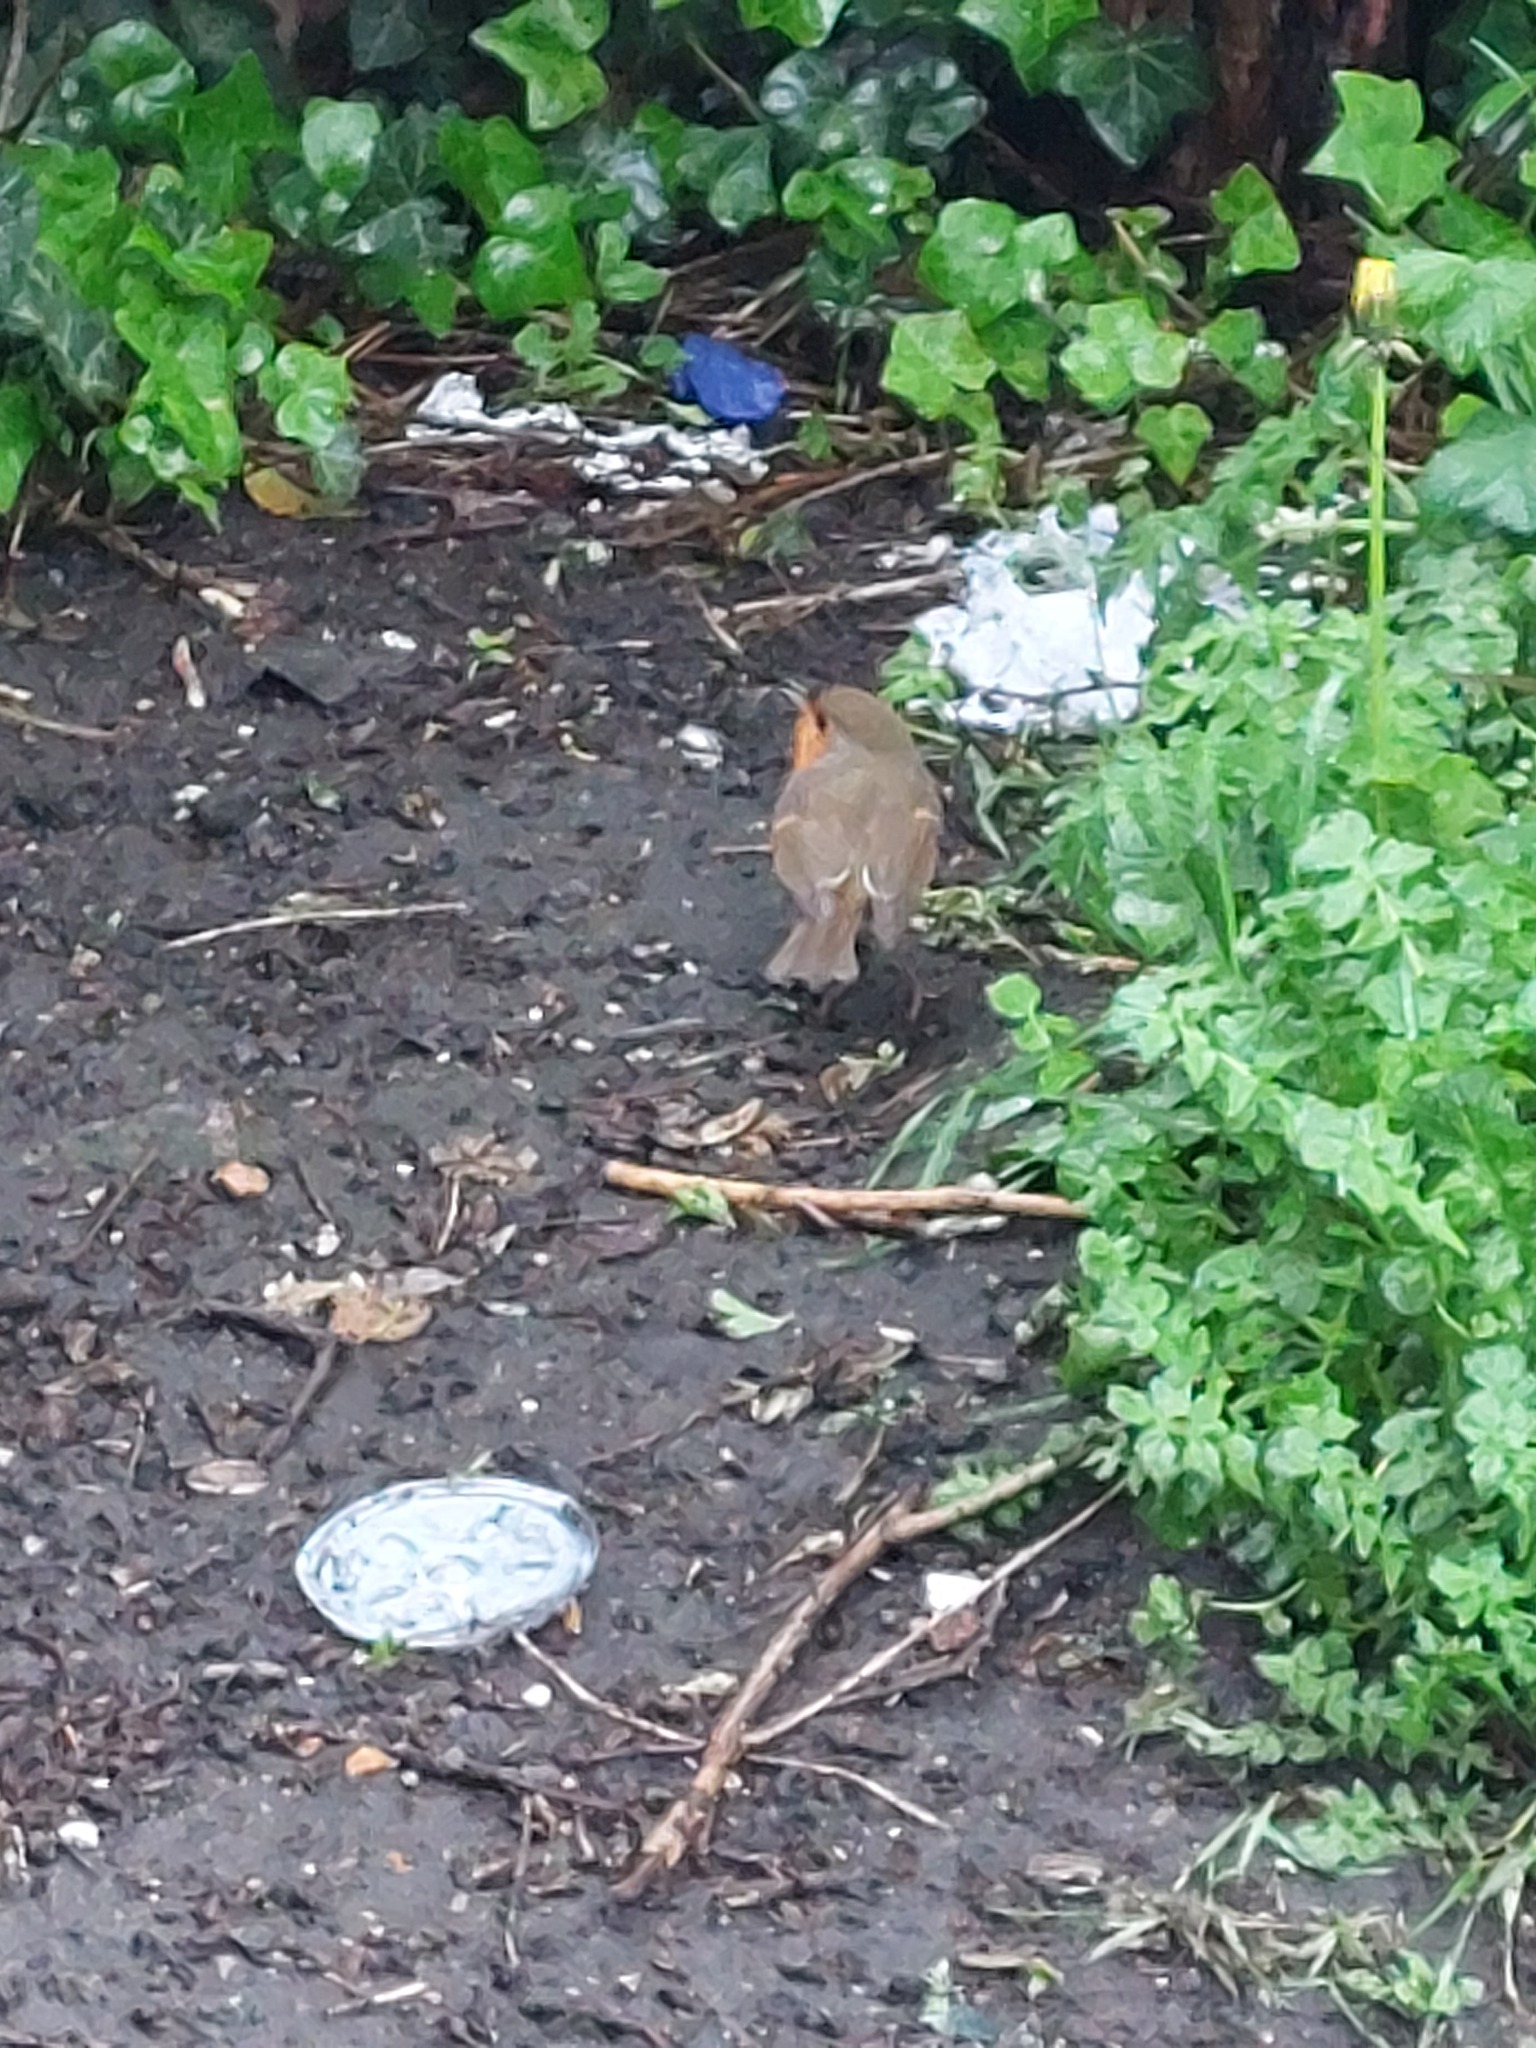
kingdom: Animalia
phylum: Chordata
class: Aves
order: Passeriformes
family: Muscicapidae
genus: Erithacus
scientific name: Erithacus rubecula
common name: European robin
